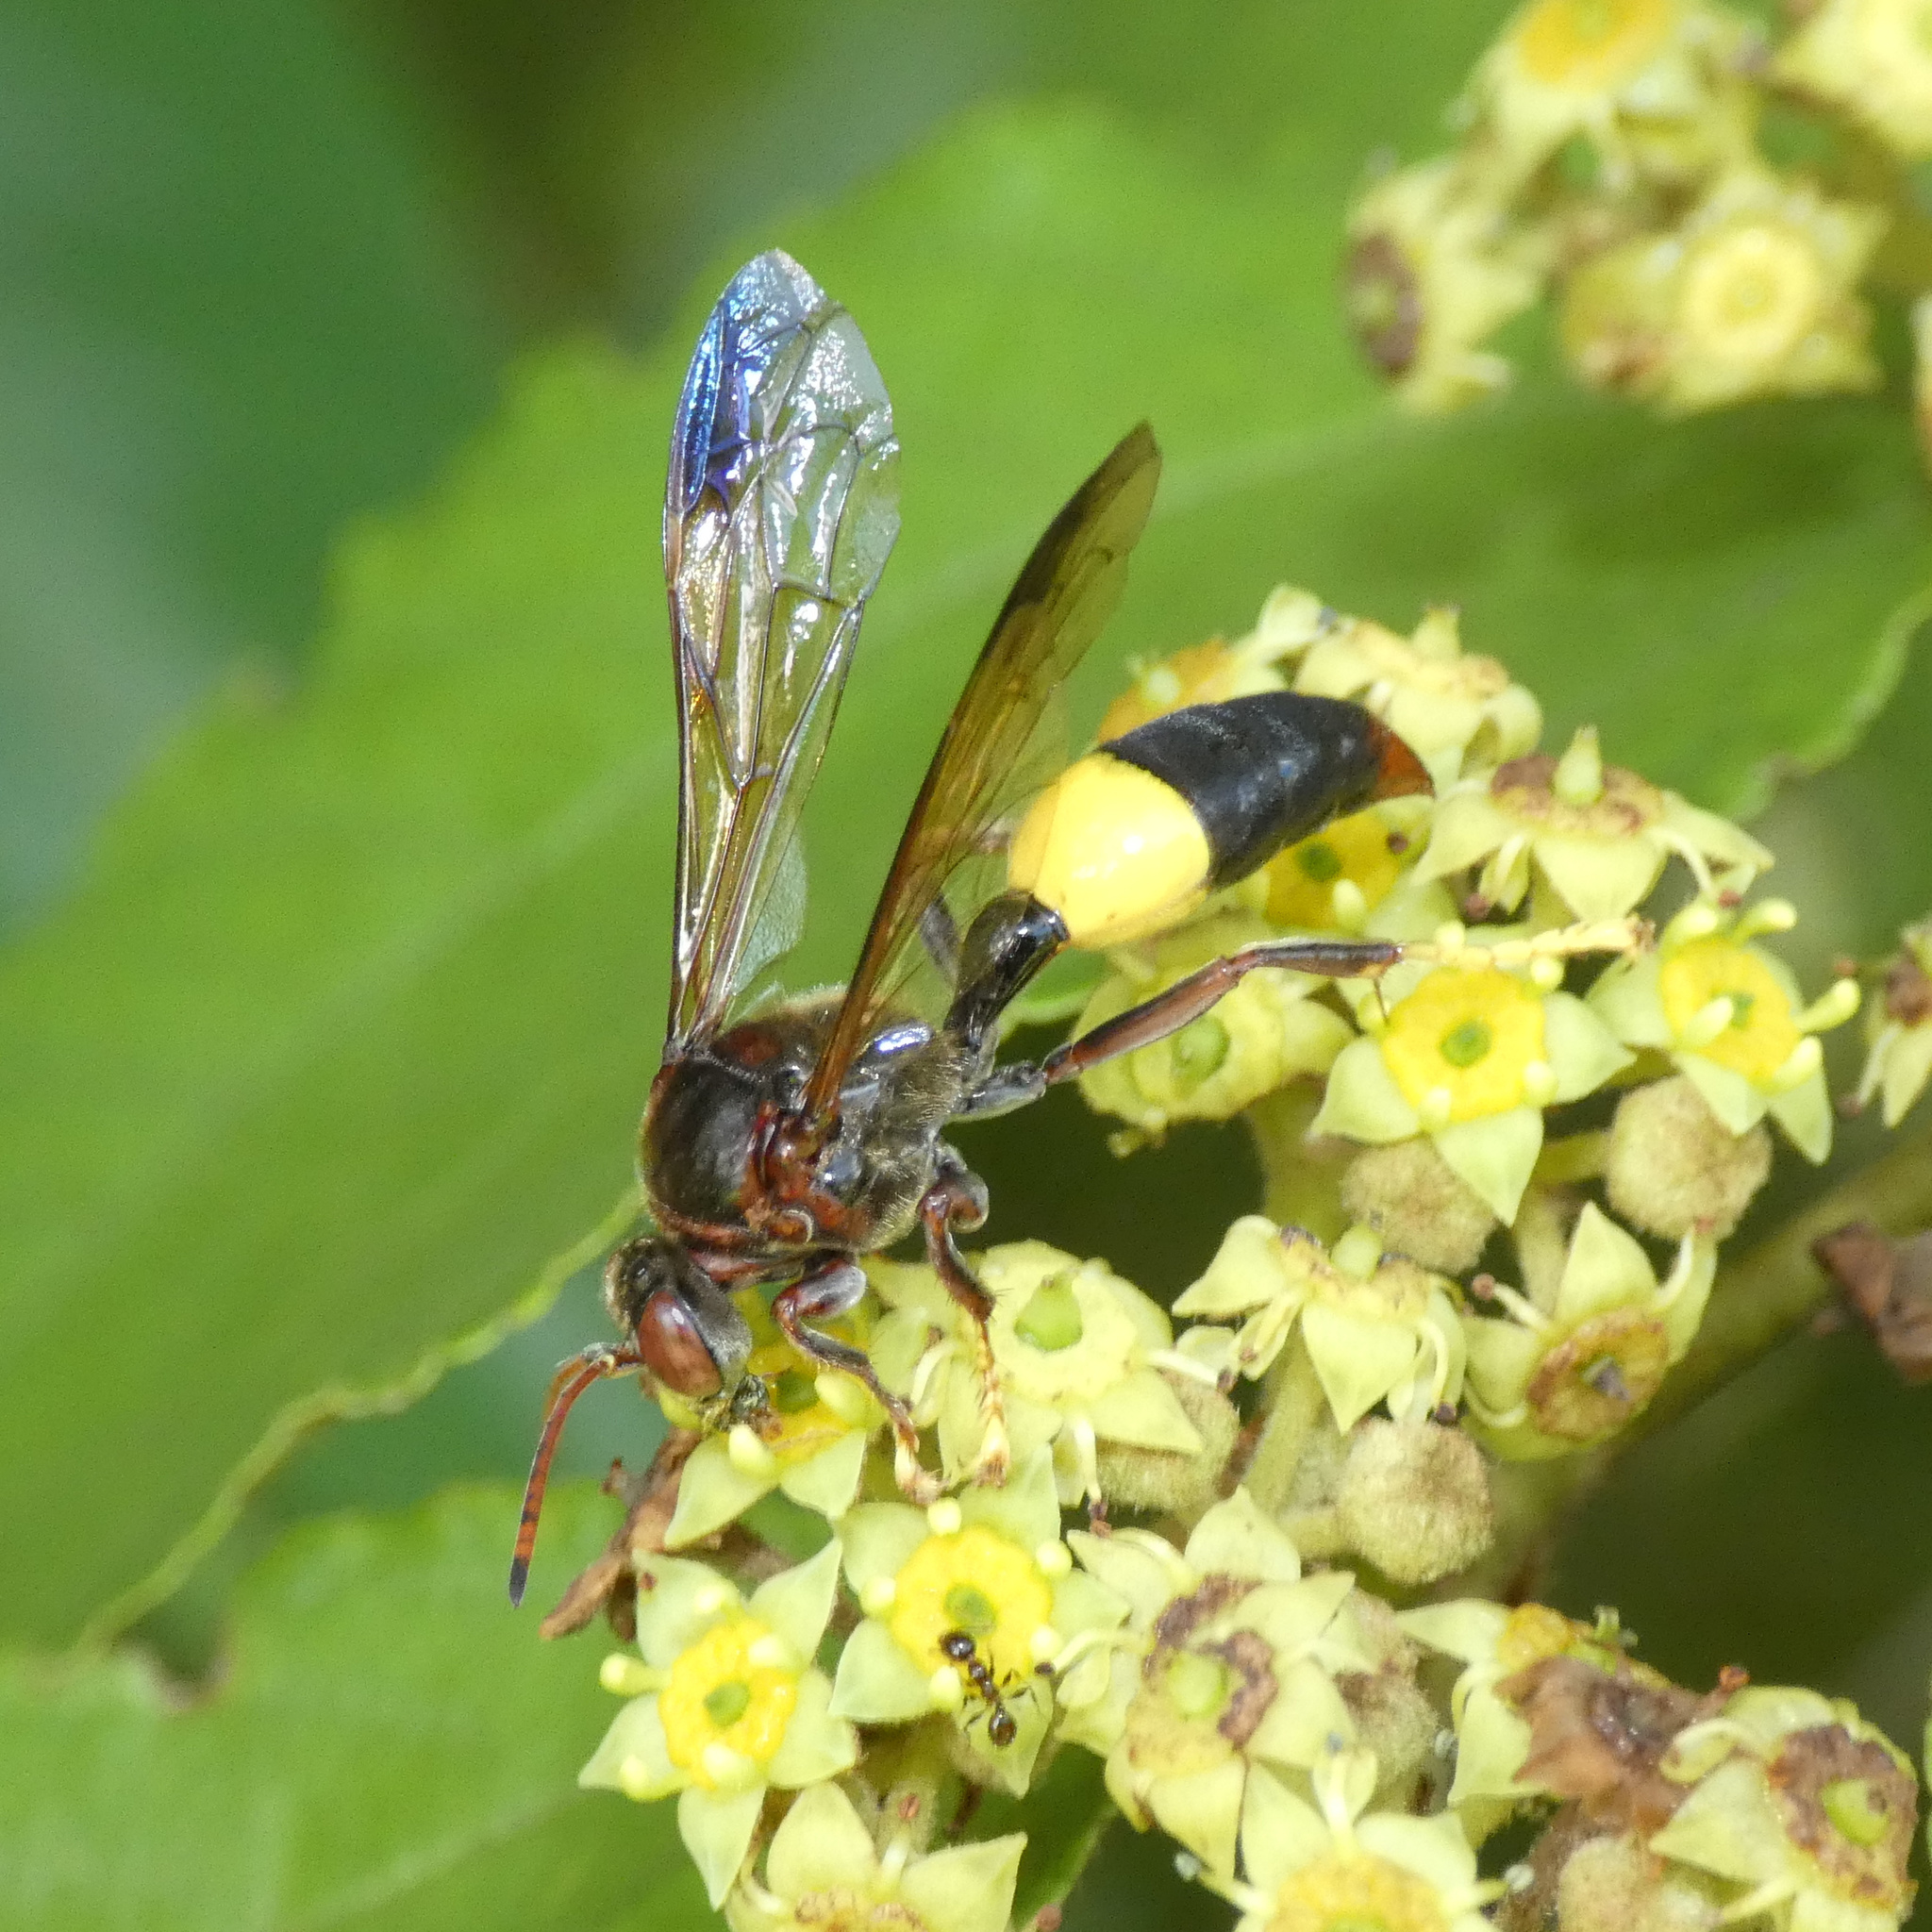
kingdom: Animalia
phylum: Arthropoda
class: Insecta
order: Hymenoptera
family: Crabronidae
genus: Gorytes
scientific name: Gorytes natalensis
